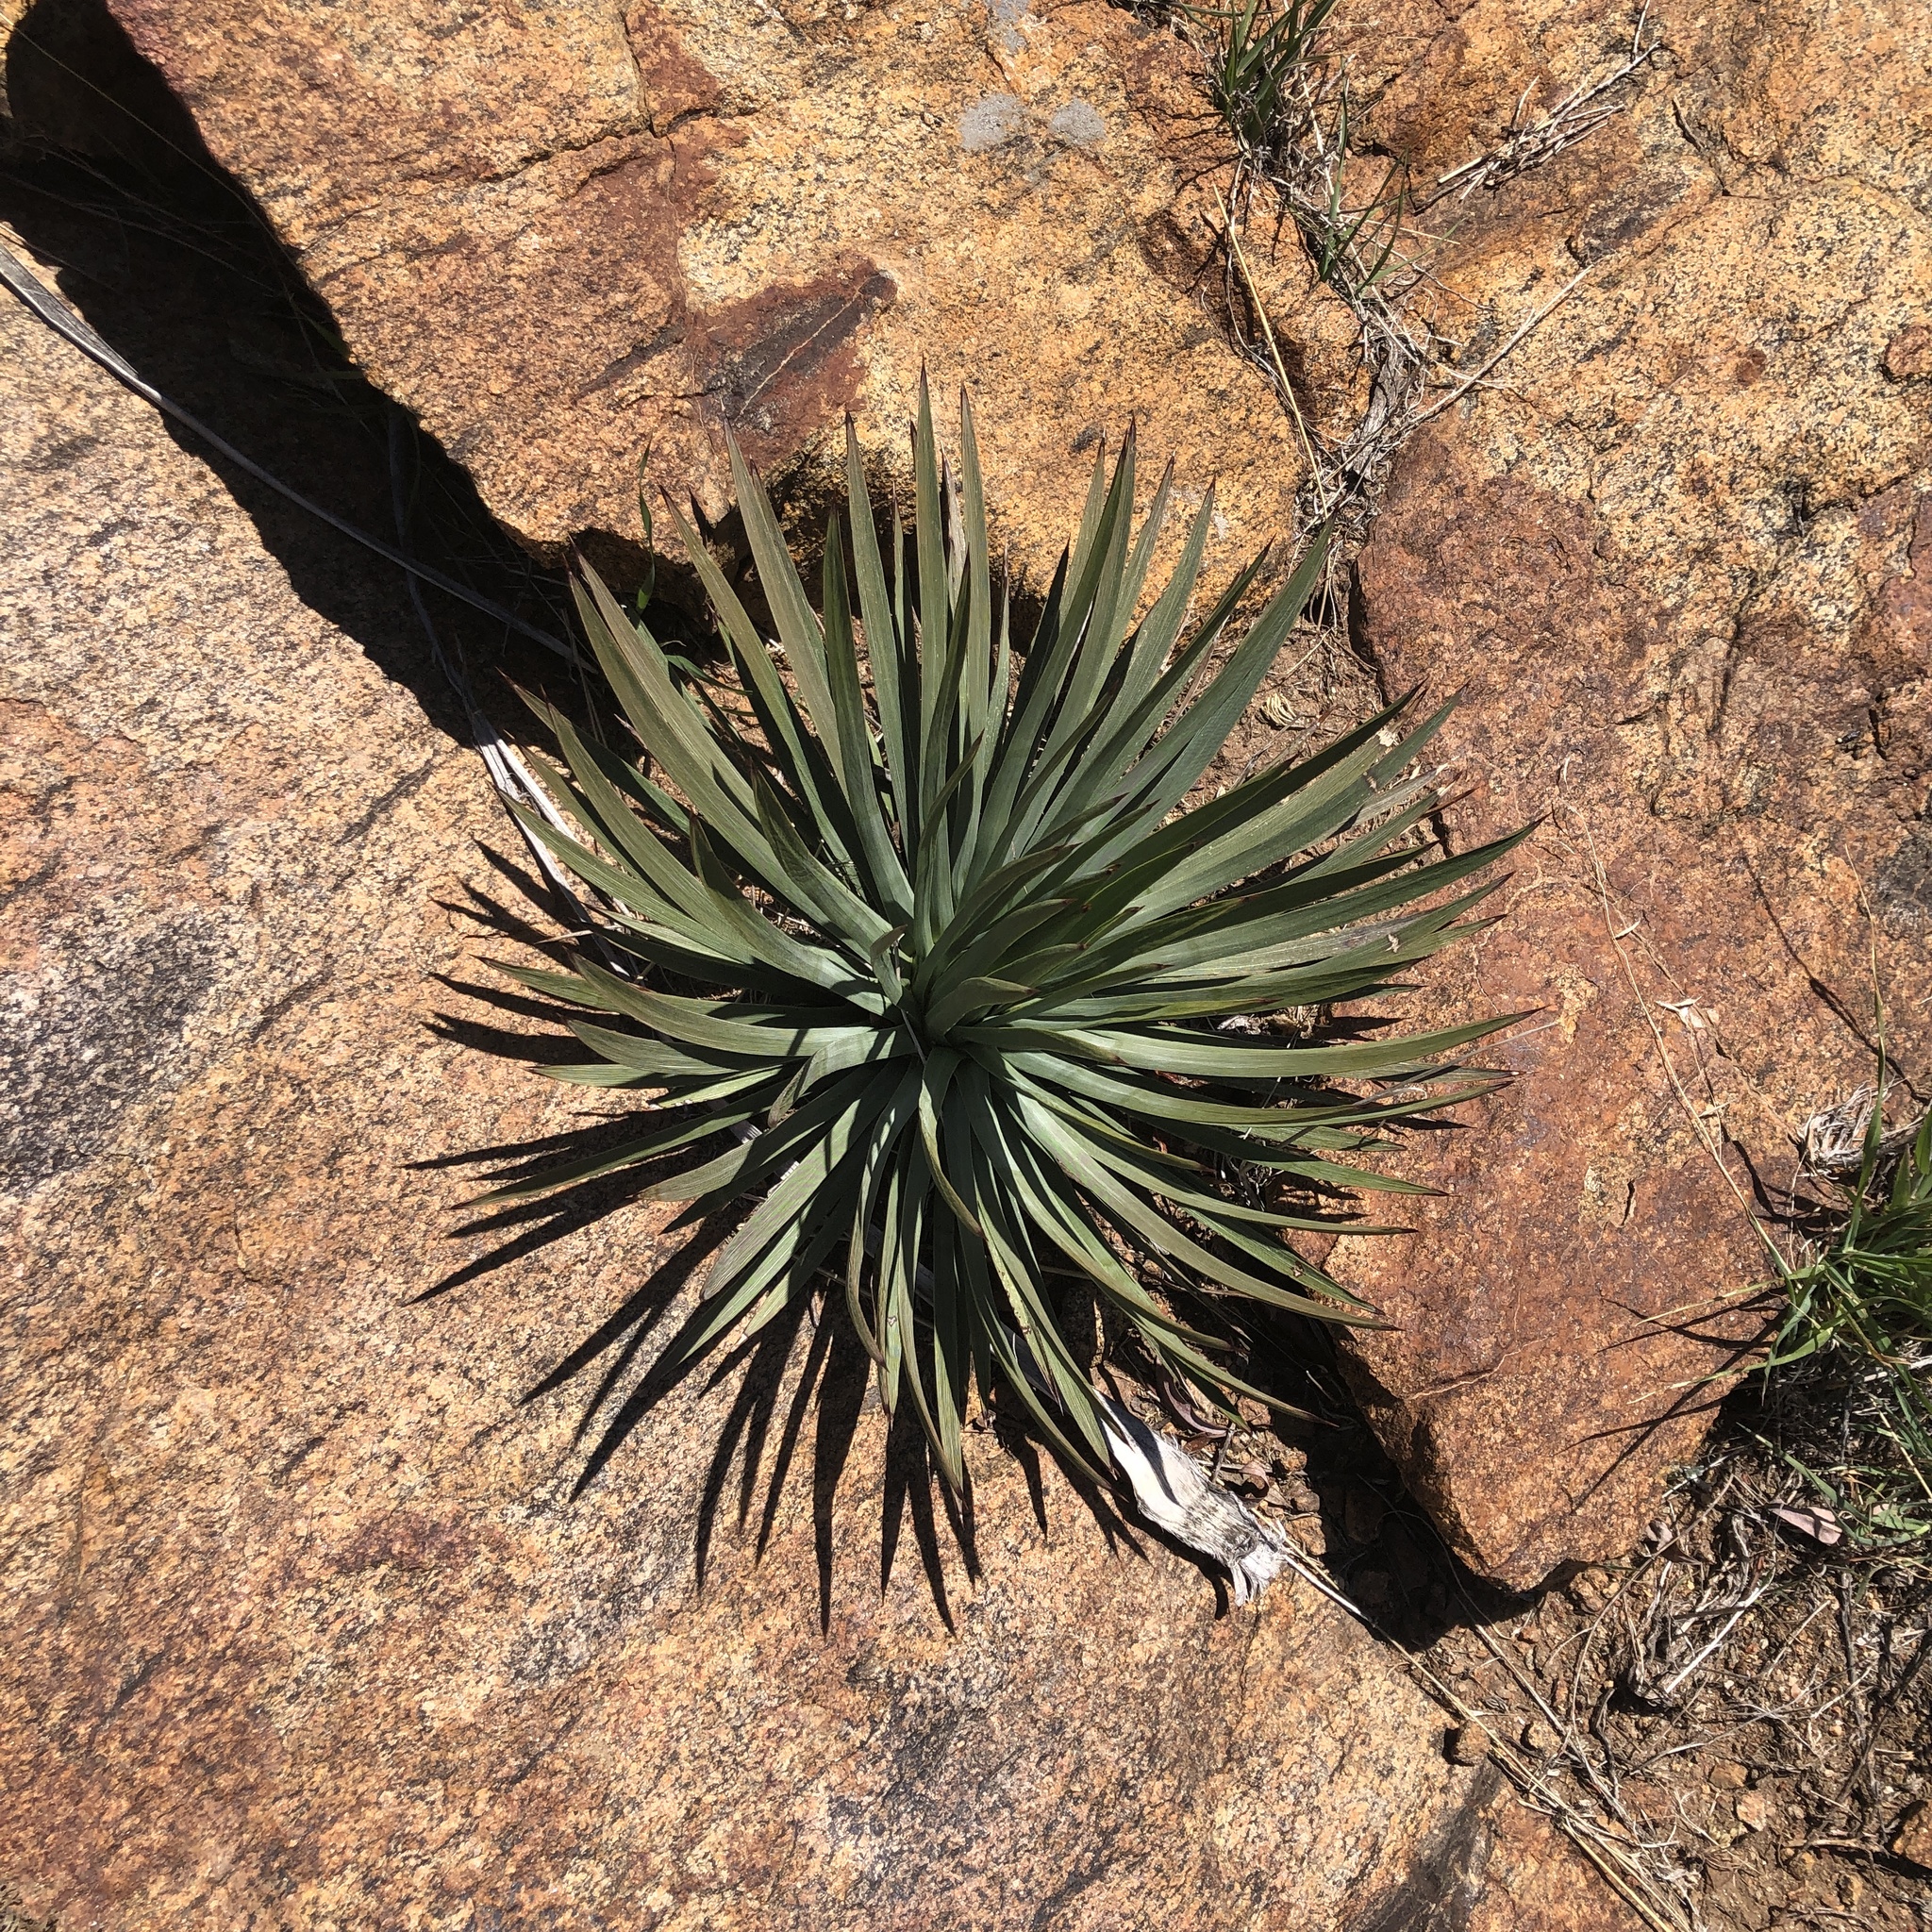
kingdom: Plantae
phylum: Tracheophyta
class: Liliopsida
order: Asparagales
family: Asparagaceae
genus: Hesperoyucca
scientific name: Hesperoyucca whipplei
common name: Our lord's-candle
